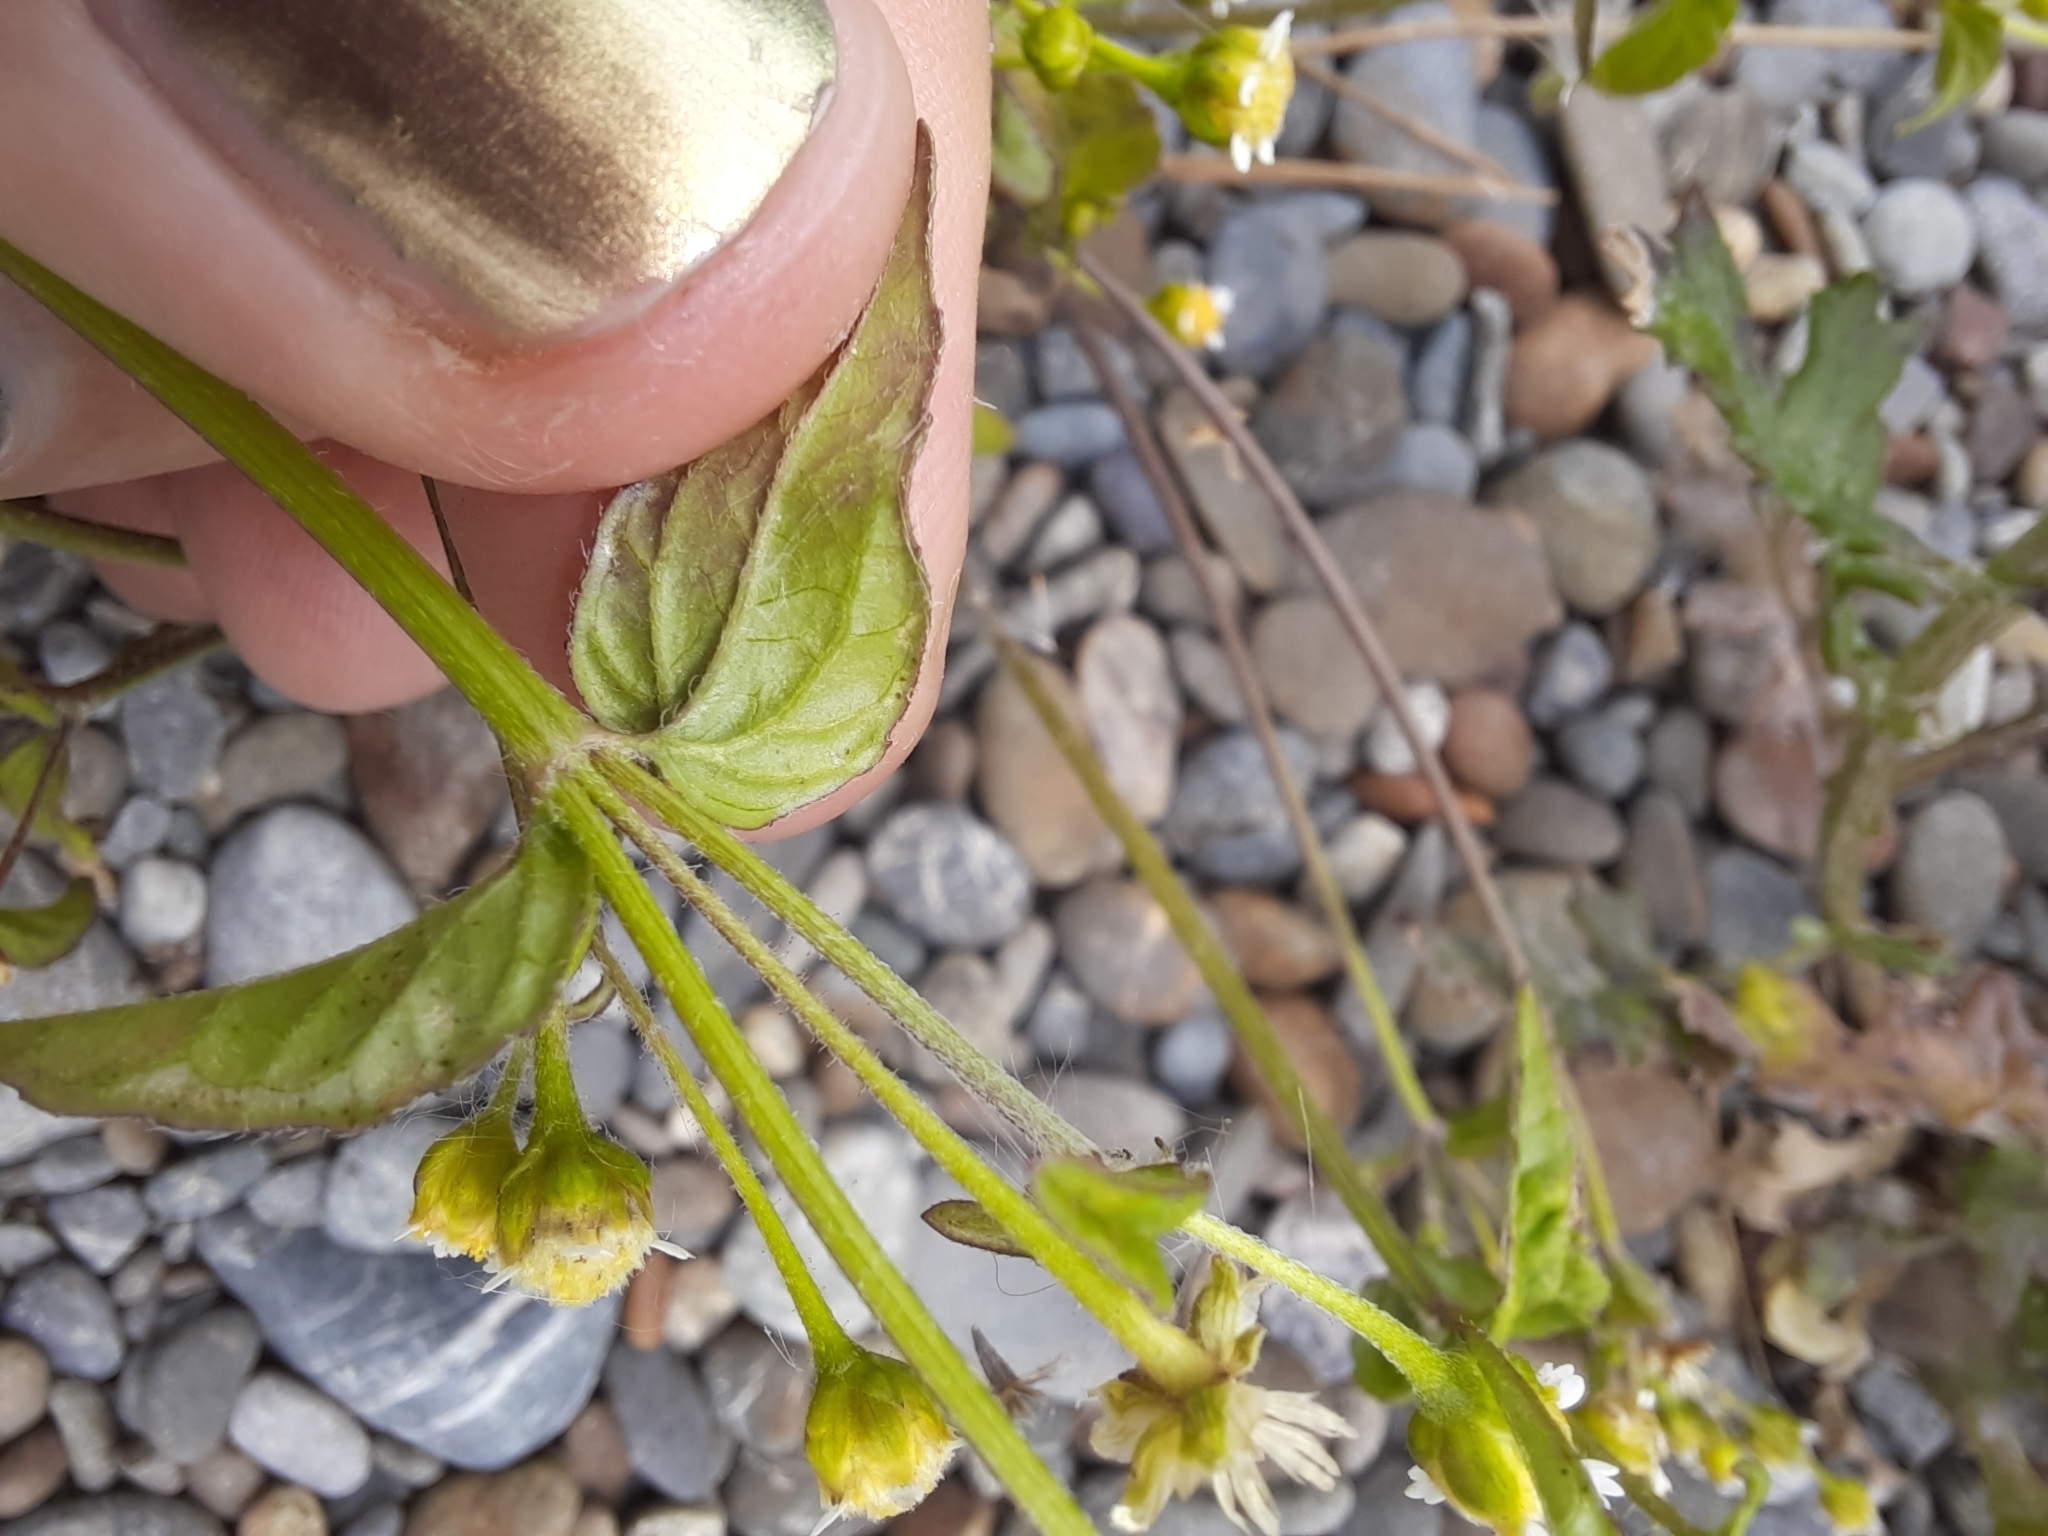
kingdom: Plantae
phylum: Tracheophyta
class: Magnoliopsida
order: Asterales
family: Asteraceae
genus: Galinsoga
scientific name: Galinsoga parviflora
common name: Gallant soldier
